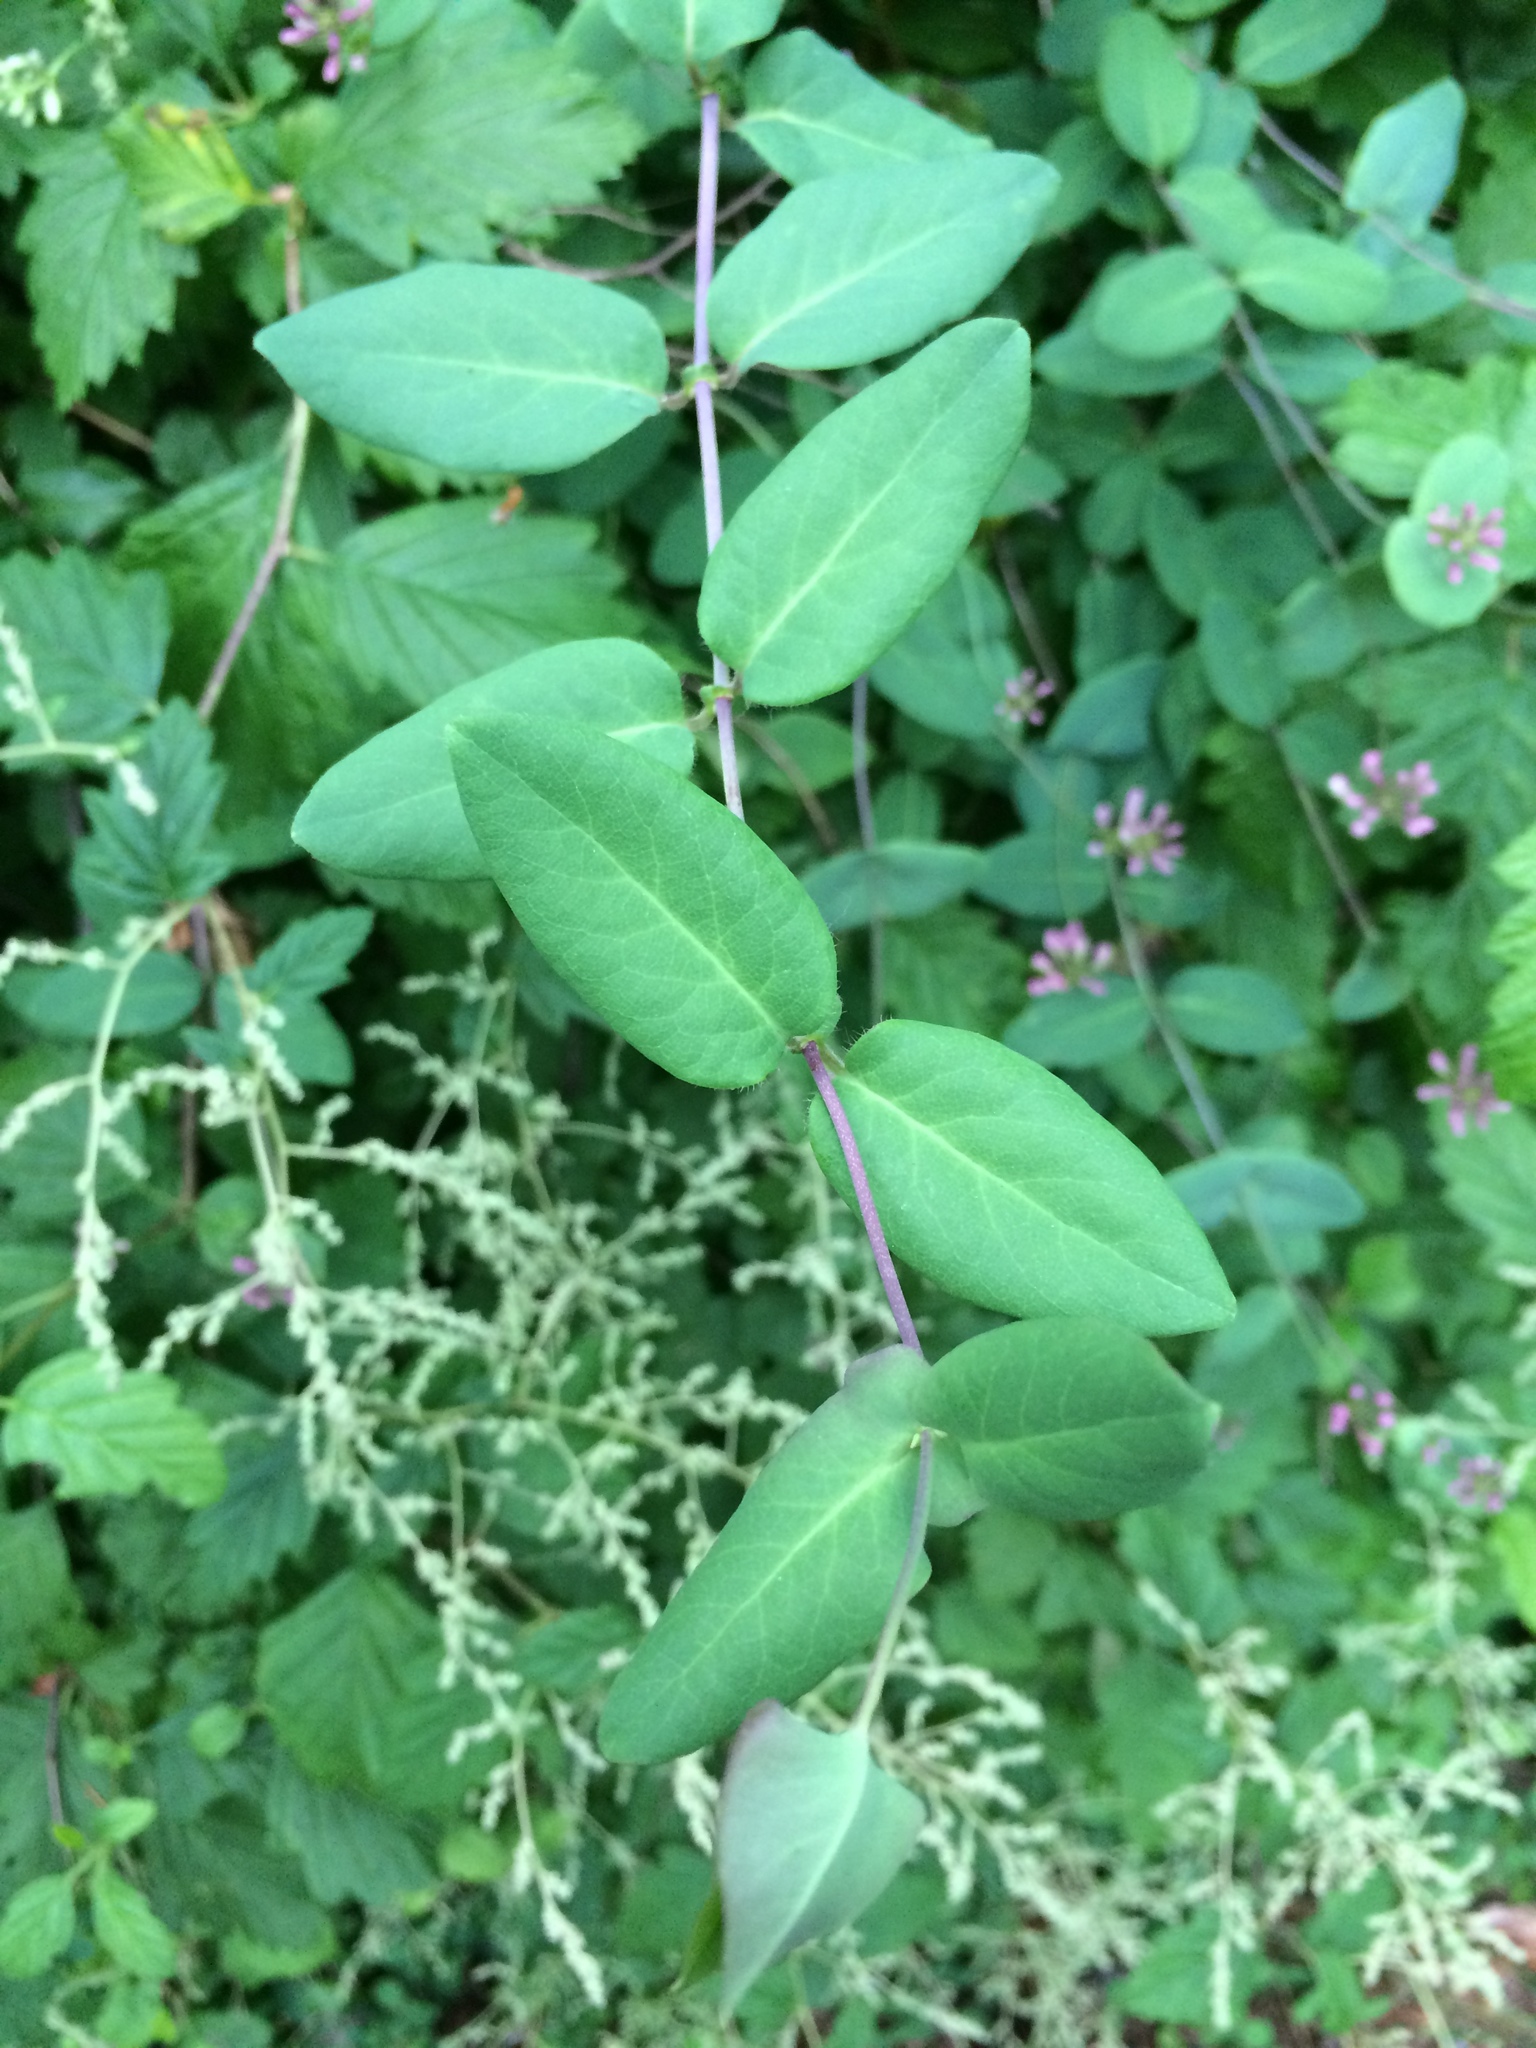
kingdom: Plantae
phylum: Tracheophyta
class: Magnoliopsida
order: Dipsacales
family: Caprifoliaceae
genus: Lonicera
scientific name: Lonicera hispidula
